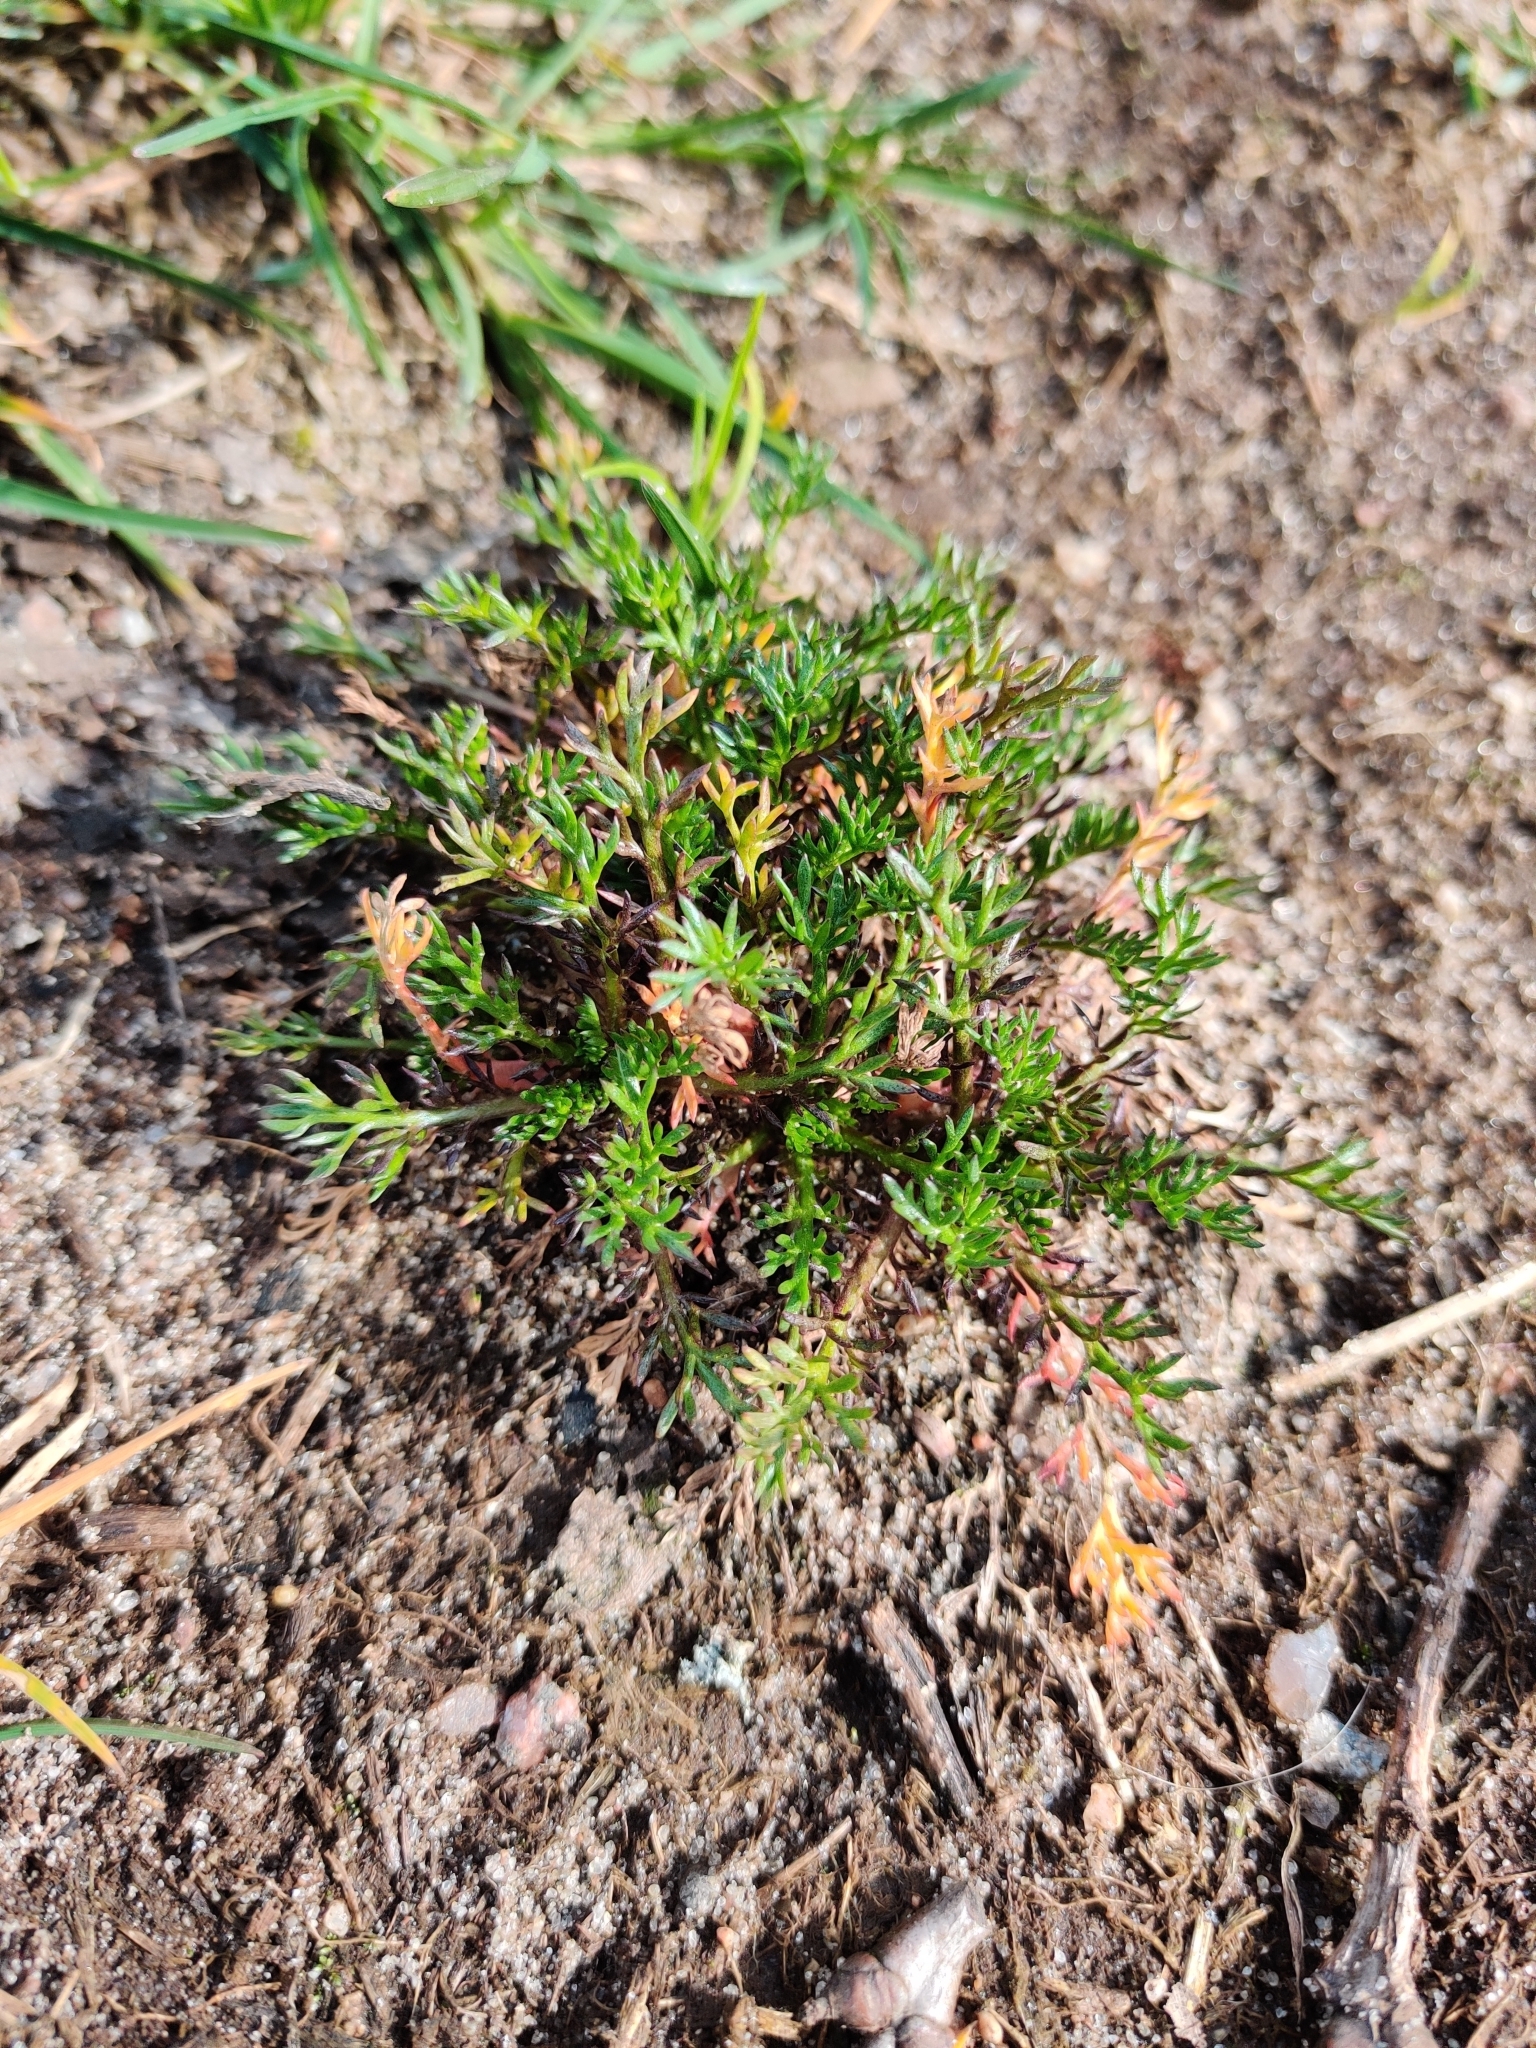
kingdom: Plantae
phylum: Tracheophyta
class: Magnoliopsida
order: Asterales
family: Asteraceae
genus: Matricaria
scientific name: Matricaria discoidea
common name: Disc mayweed
